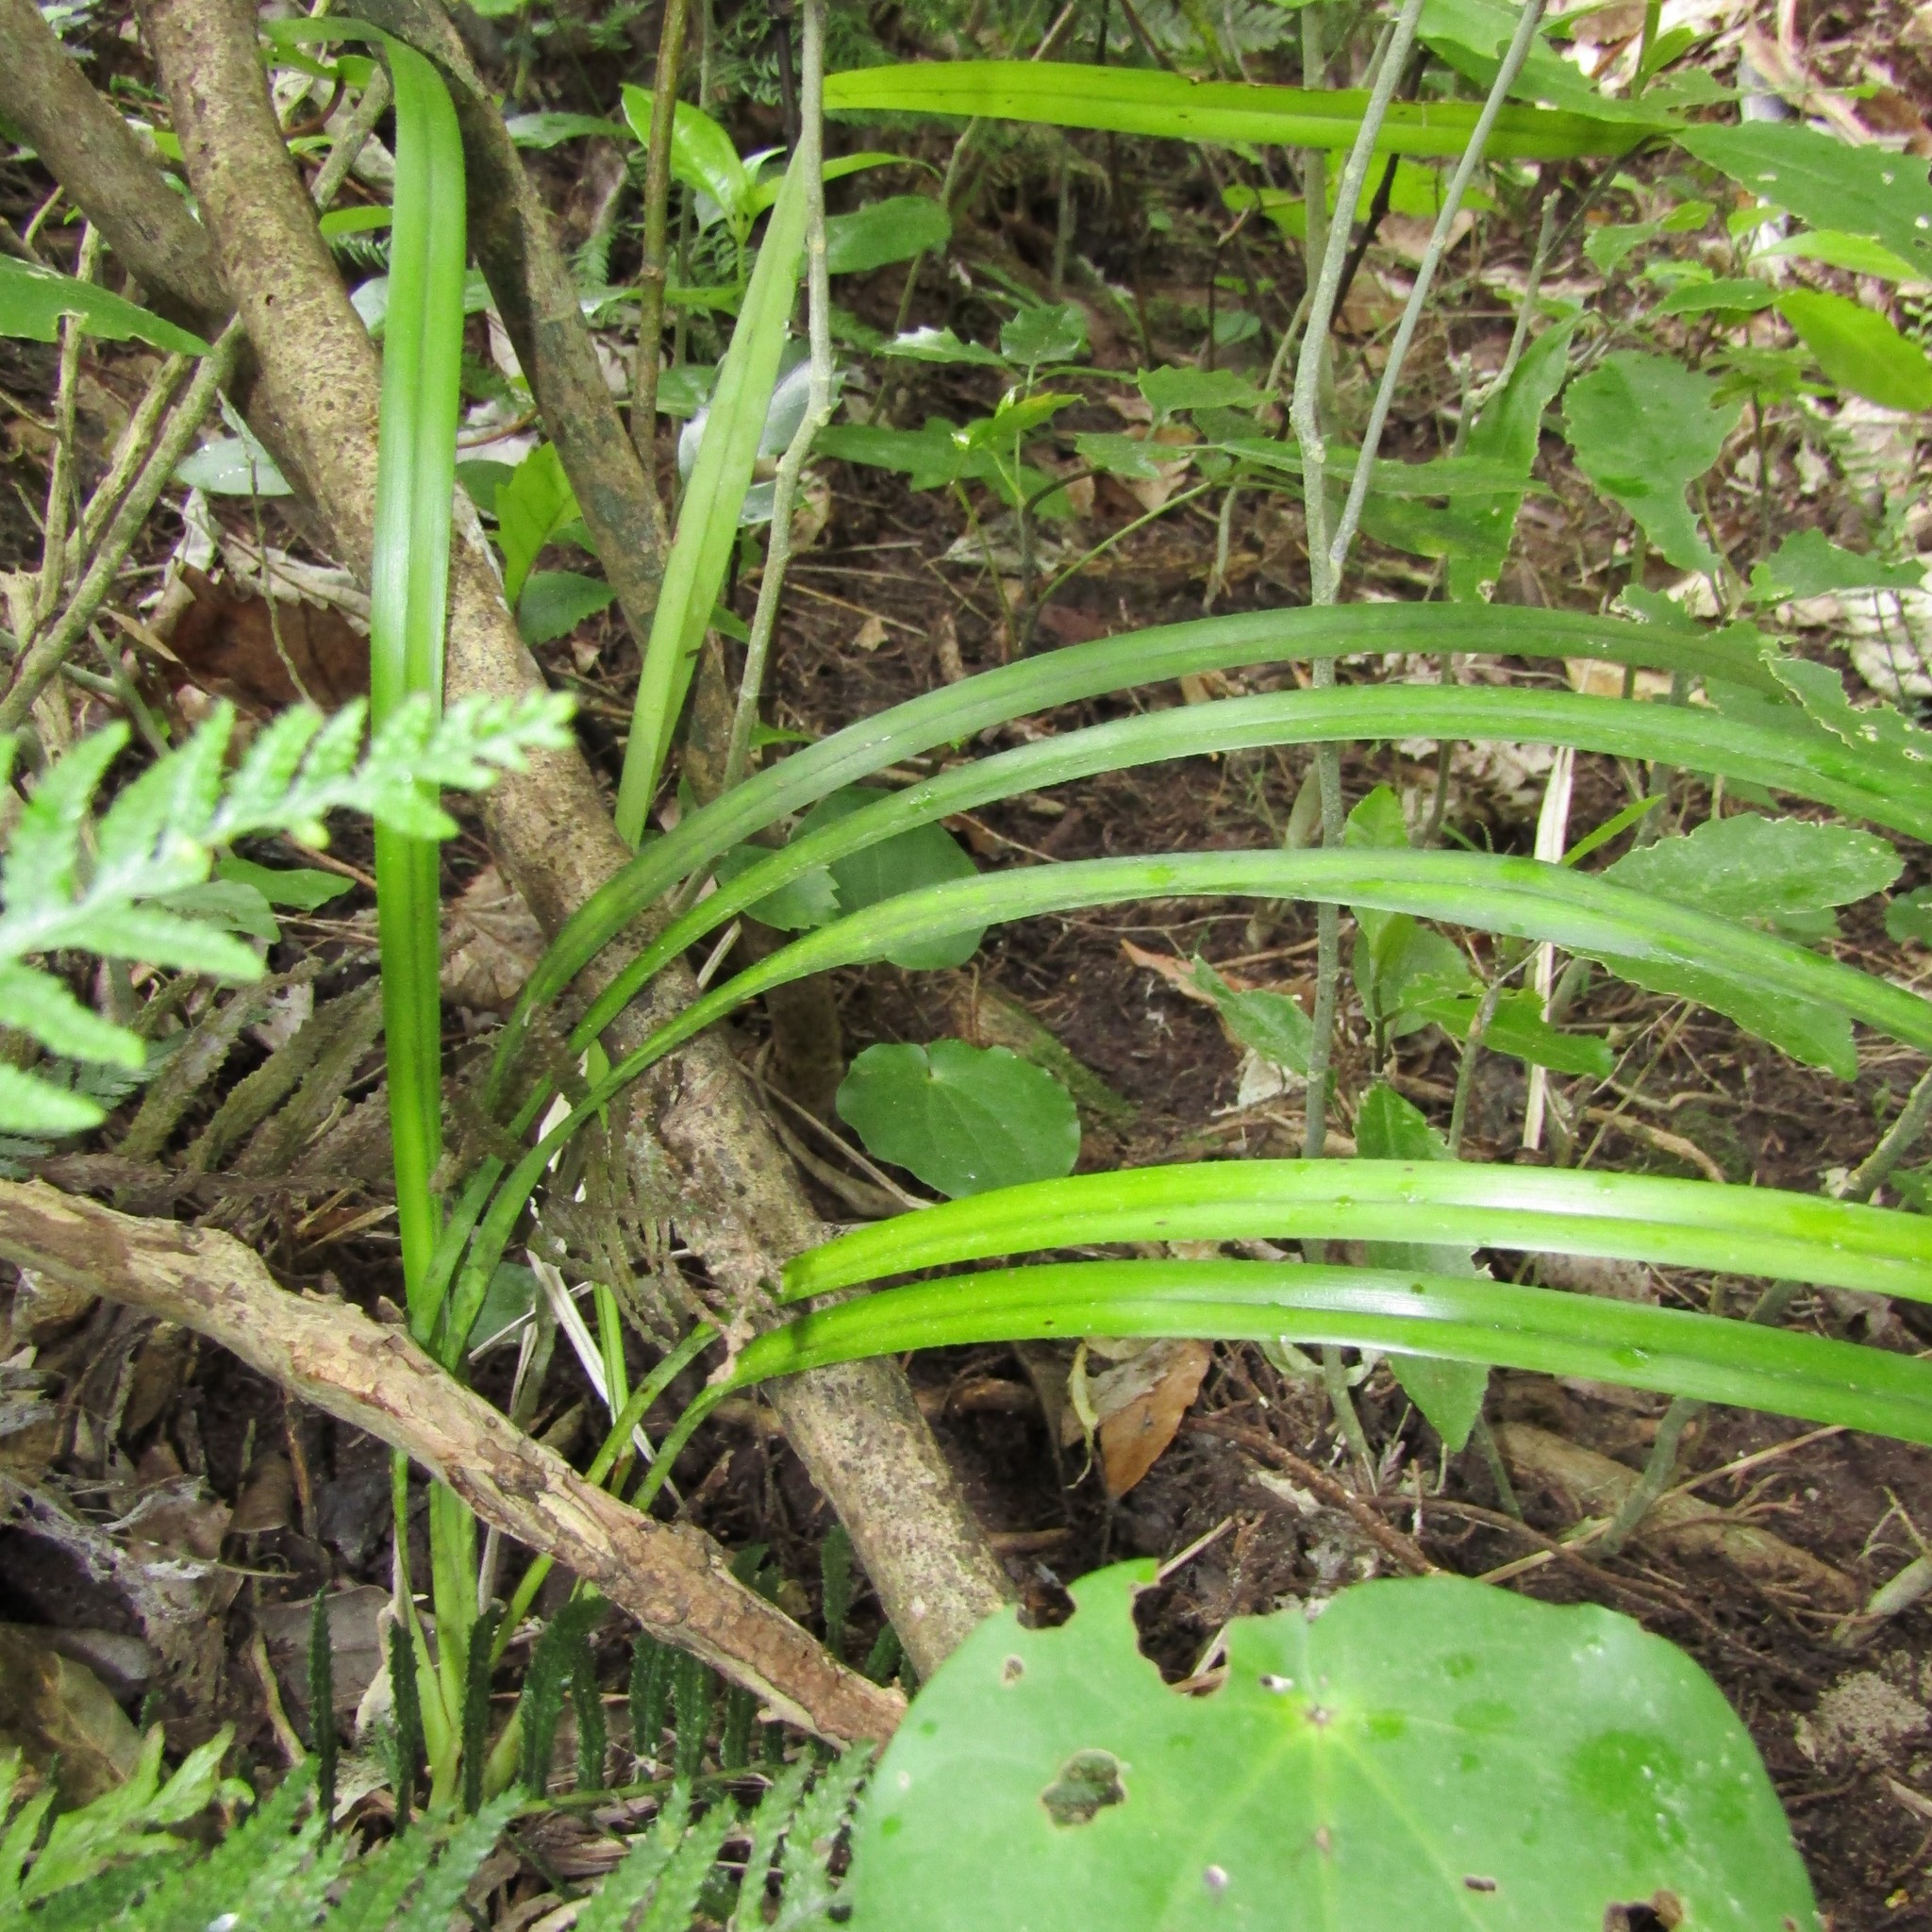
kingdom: Plantae
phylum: Tracheophyta
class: Liliopsida
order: Asparagales
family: Asphodelaceae
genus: Dianella
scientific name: Dianella nigra
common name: New zealand-blueberry
